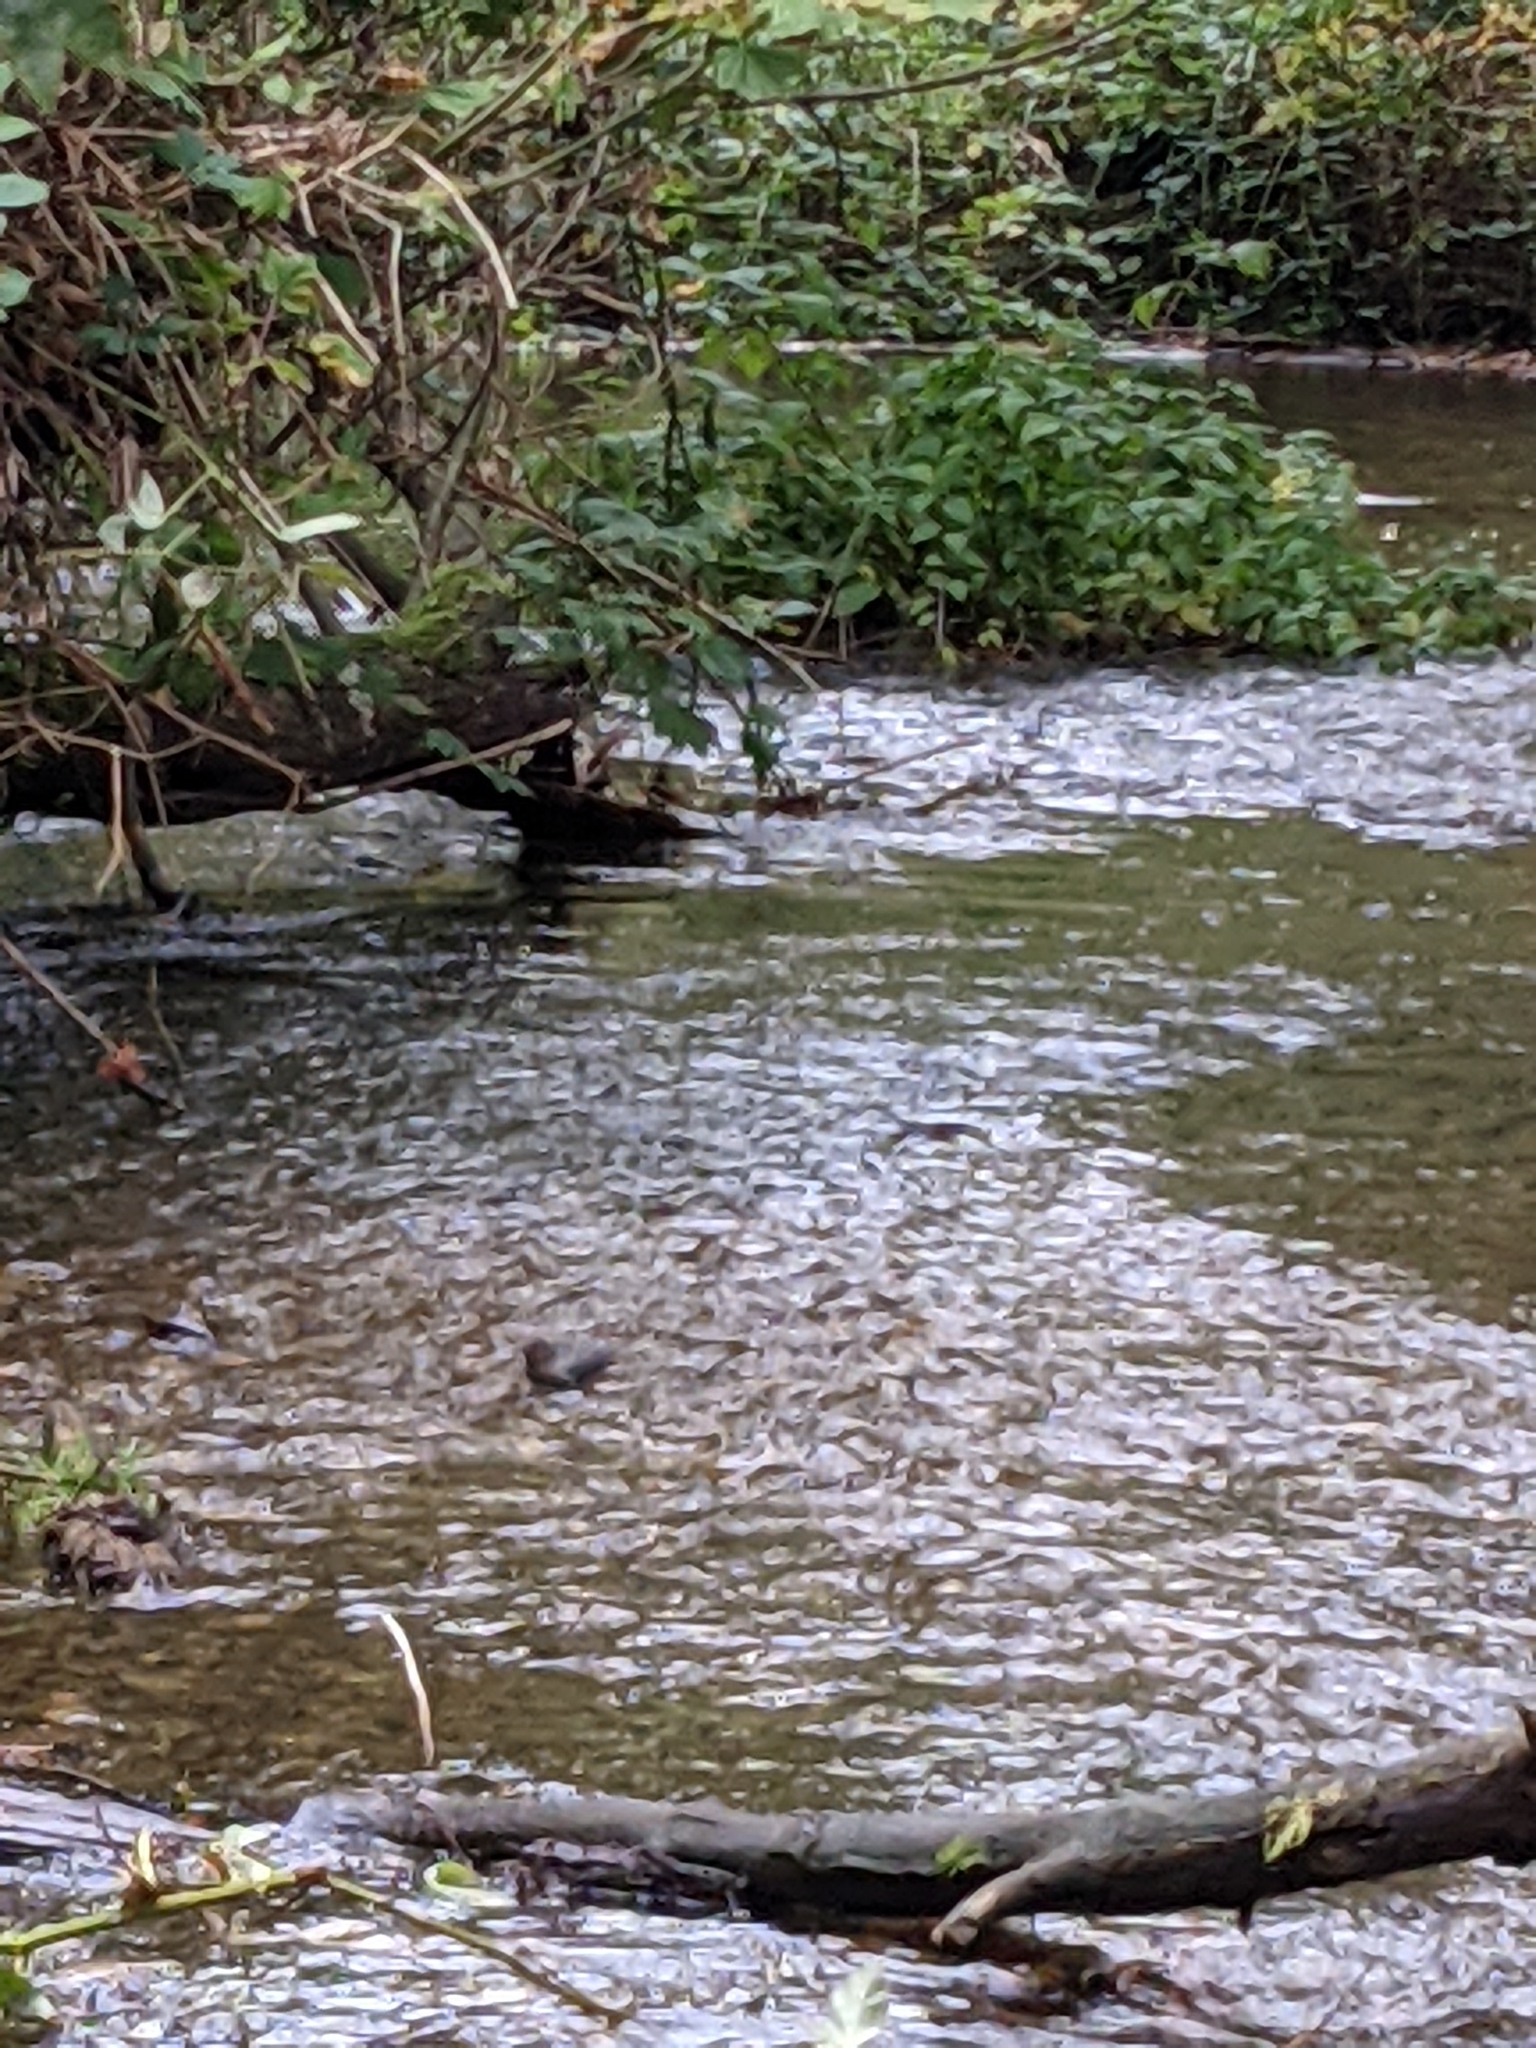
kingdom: Animalia
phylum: Chordata
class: Aves
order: Passeriformes
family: Cinclidae
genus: Cinclus
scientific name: Cinclus mexicanus
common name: American dipper
